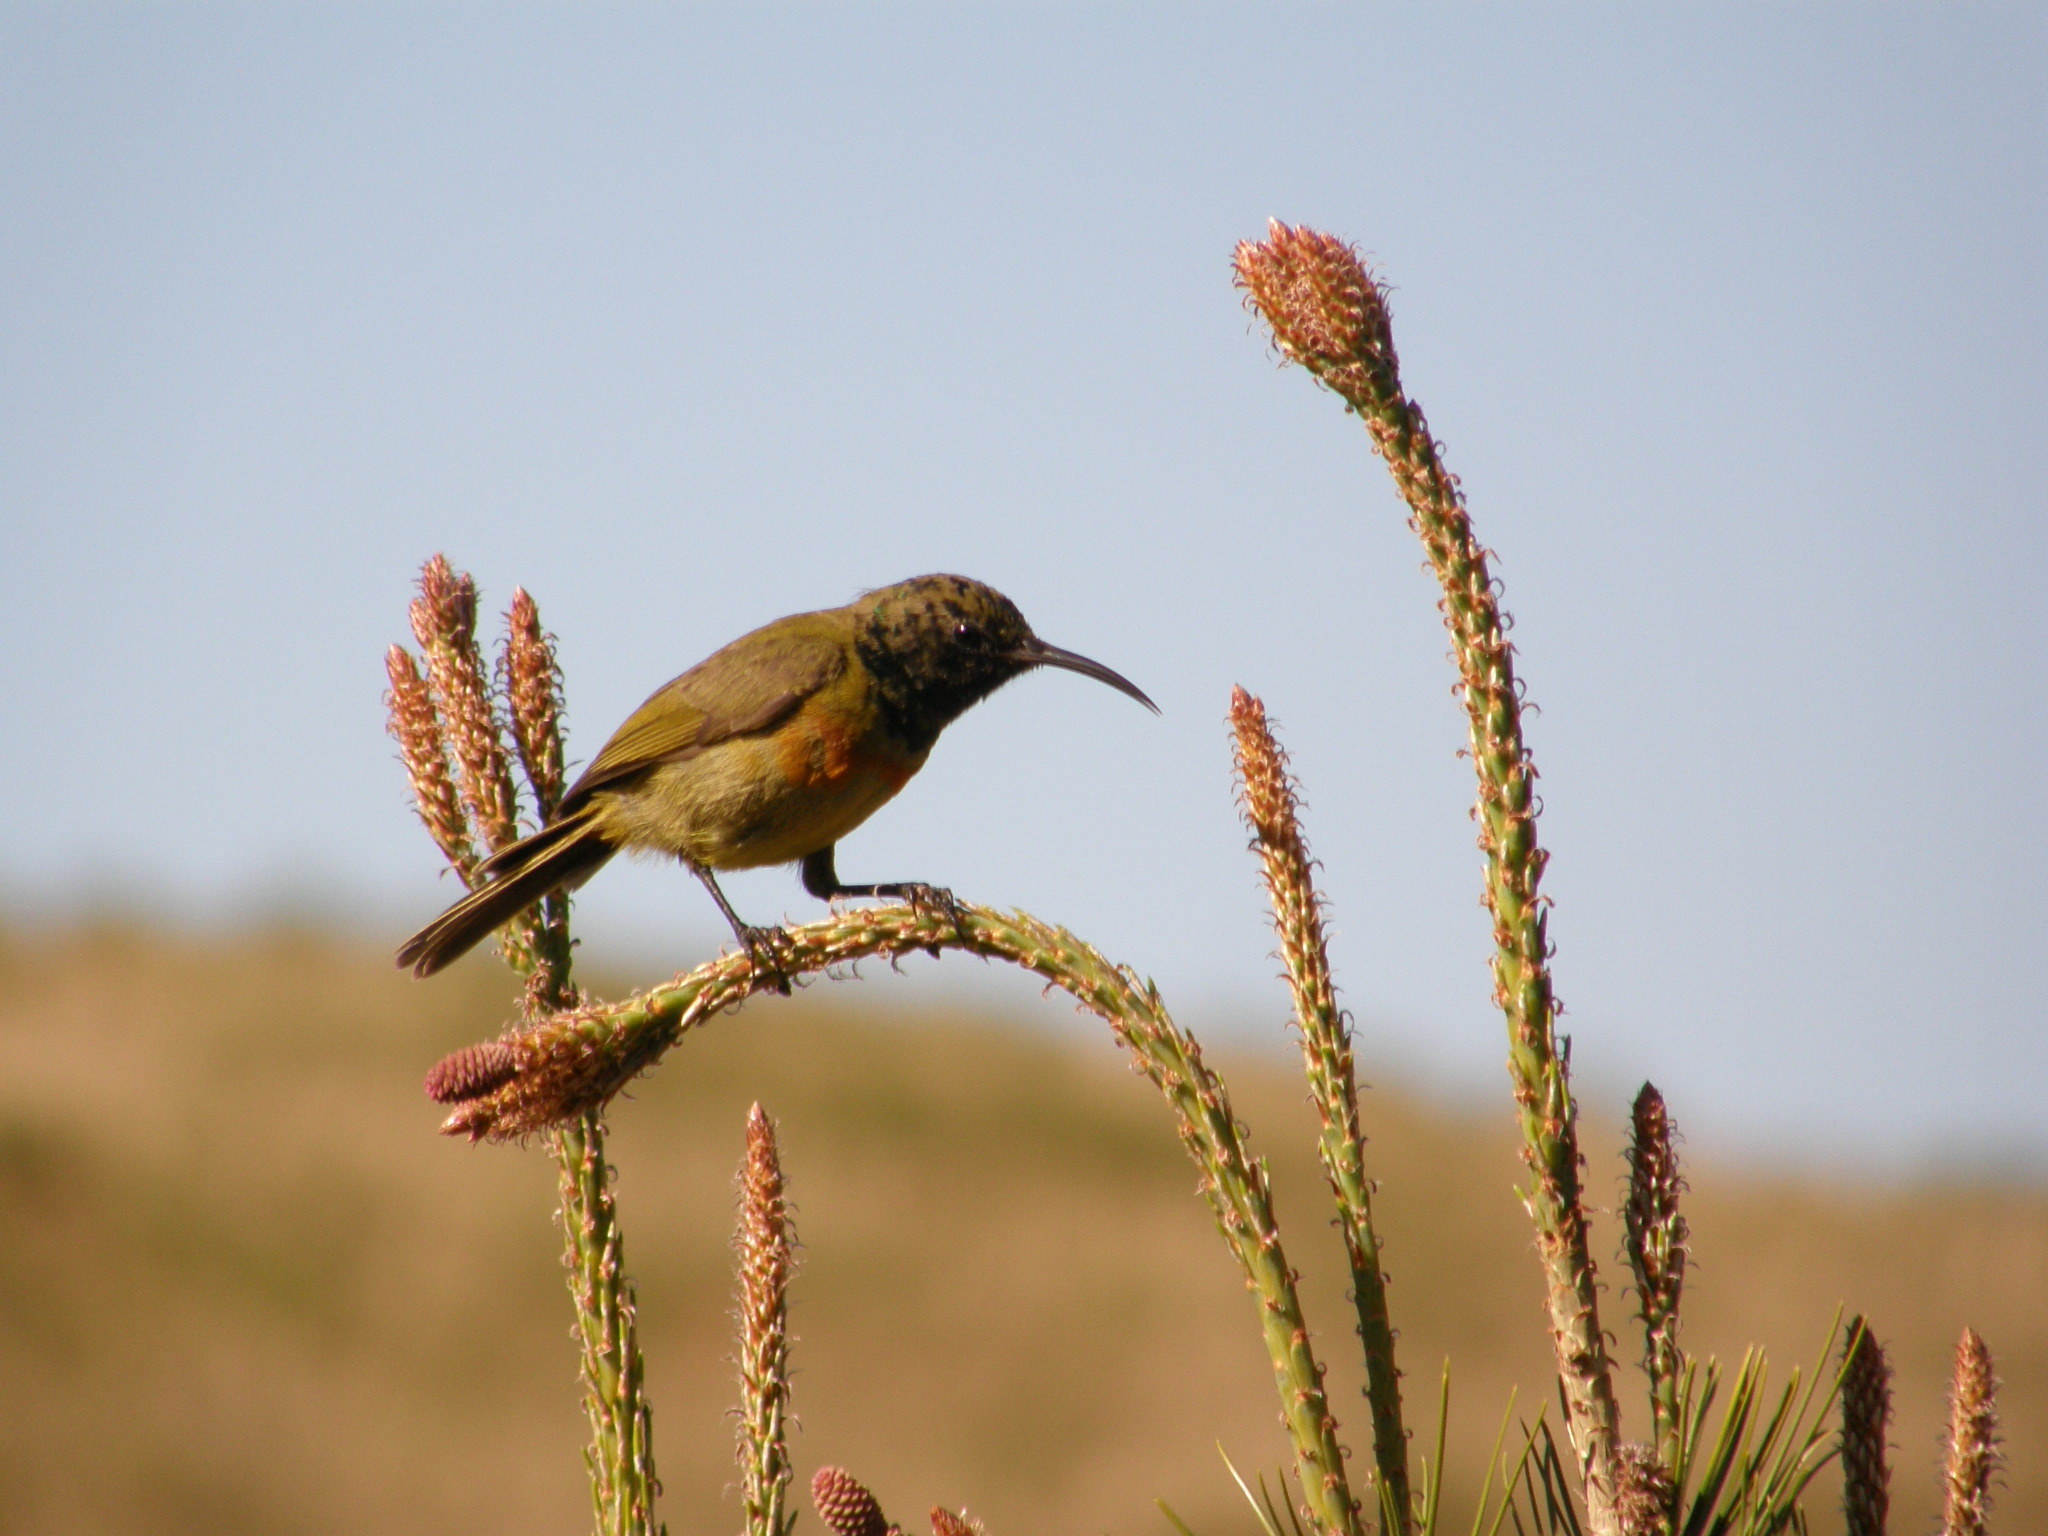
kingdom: Animalia
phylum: Chordata
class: Aves
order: Passeriformes
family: Nectariniidae
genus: Anthobaphes
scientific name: Anthobaphes violacea
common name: Orange-breasted sunbird
